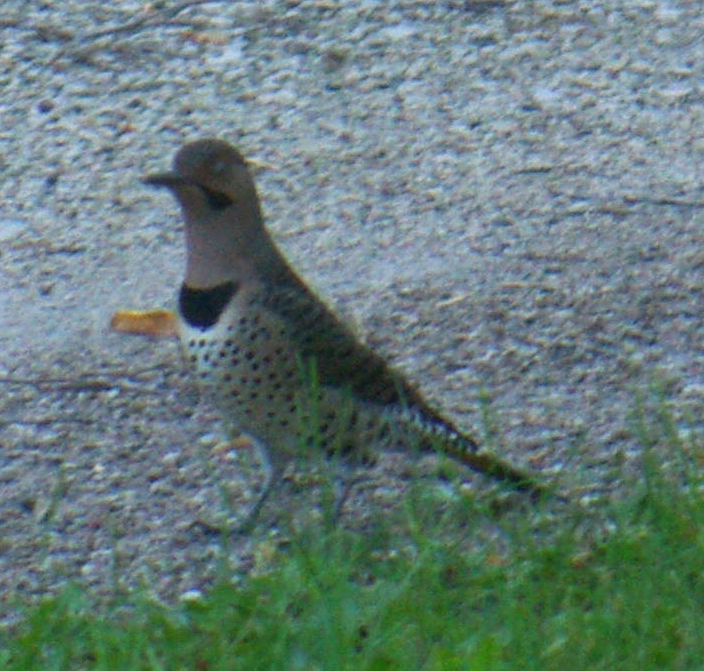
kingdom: Animalia
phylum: Chordata
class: Aves
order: Piciformes
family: Picidae
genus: Colaptes
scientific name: Colaptes auratus
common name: Northern flicker
